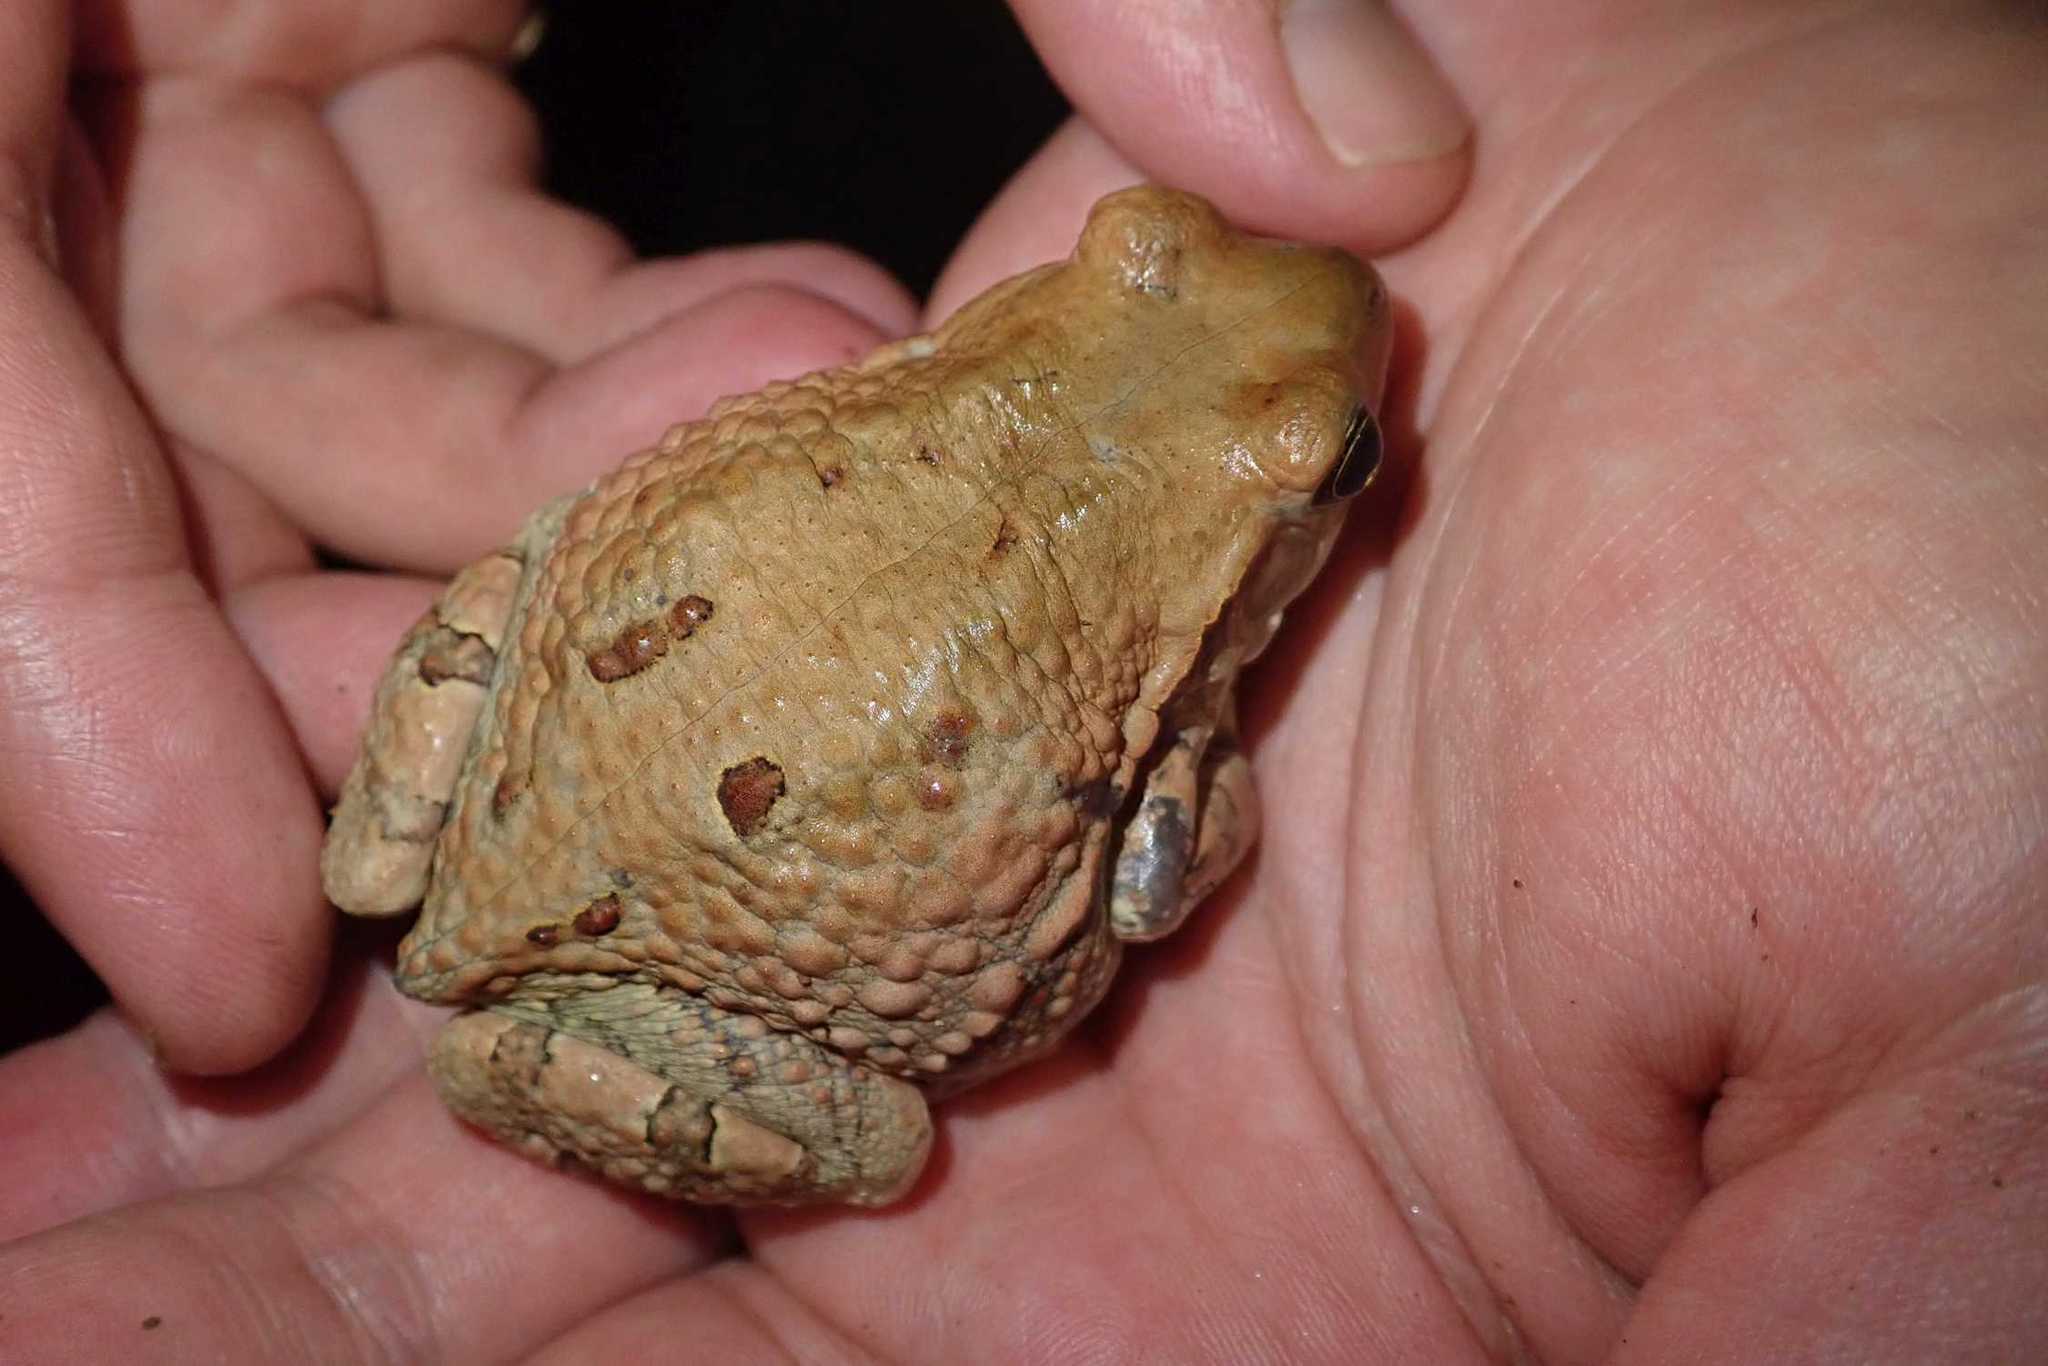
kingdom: Animalia
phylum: Chordata
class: Amphibia
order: Anura
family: Bufonidae
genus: Schismaderma
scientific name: Schismaderma carens
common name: African split-skin toad
